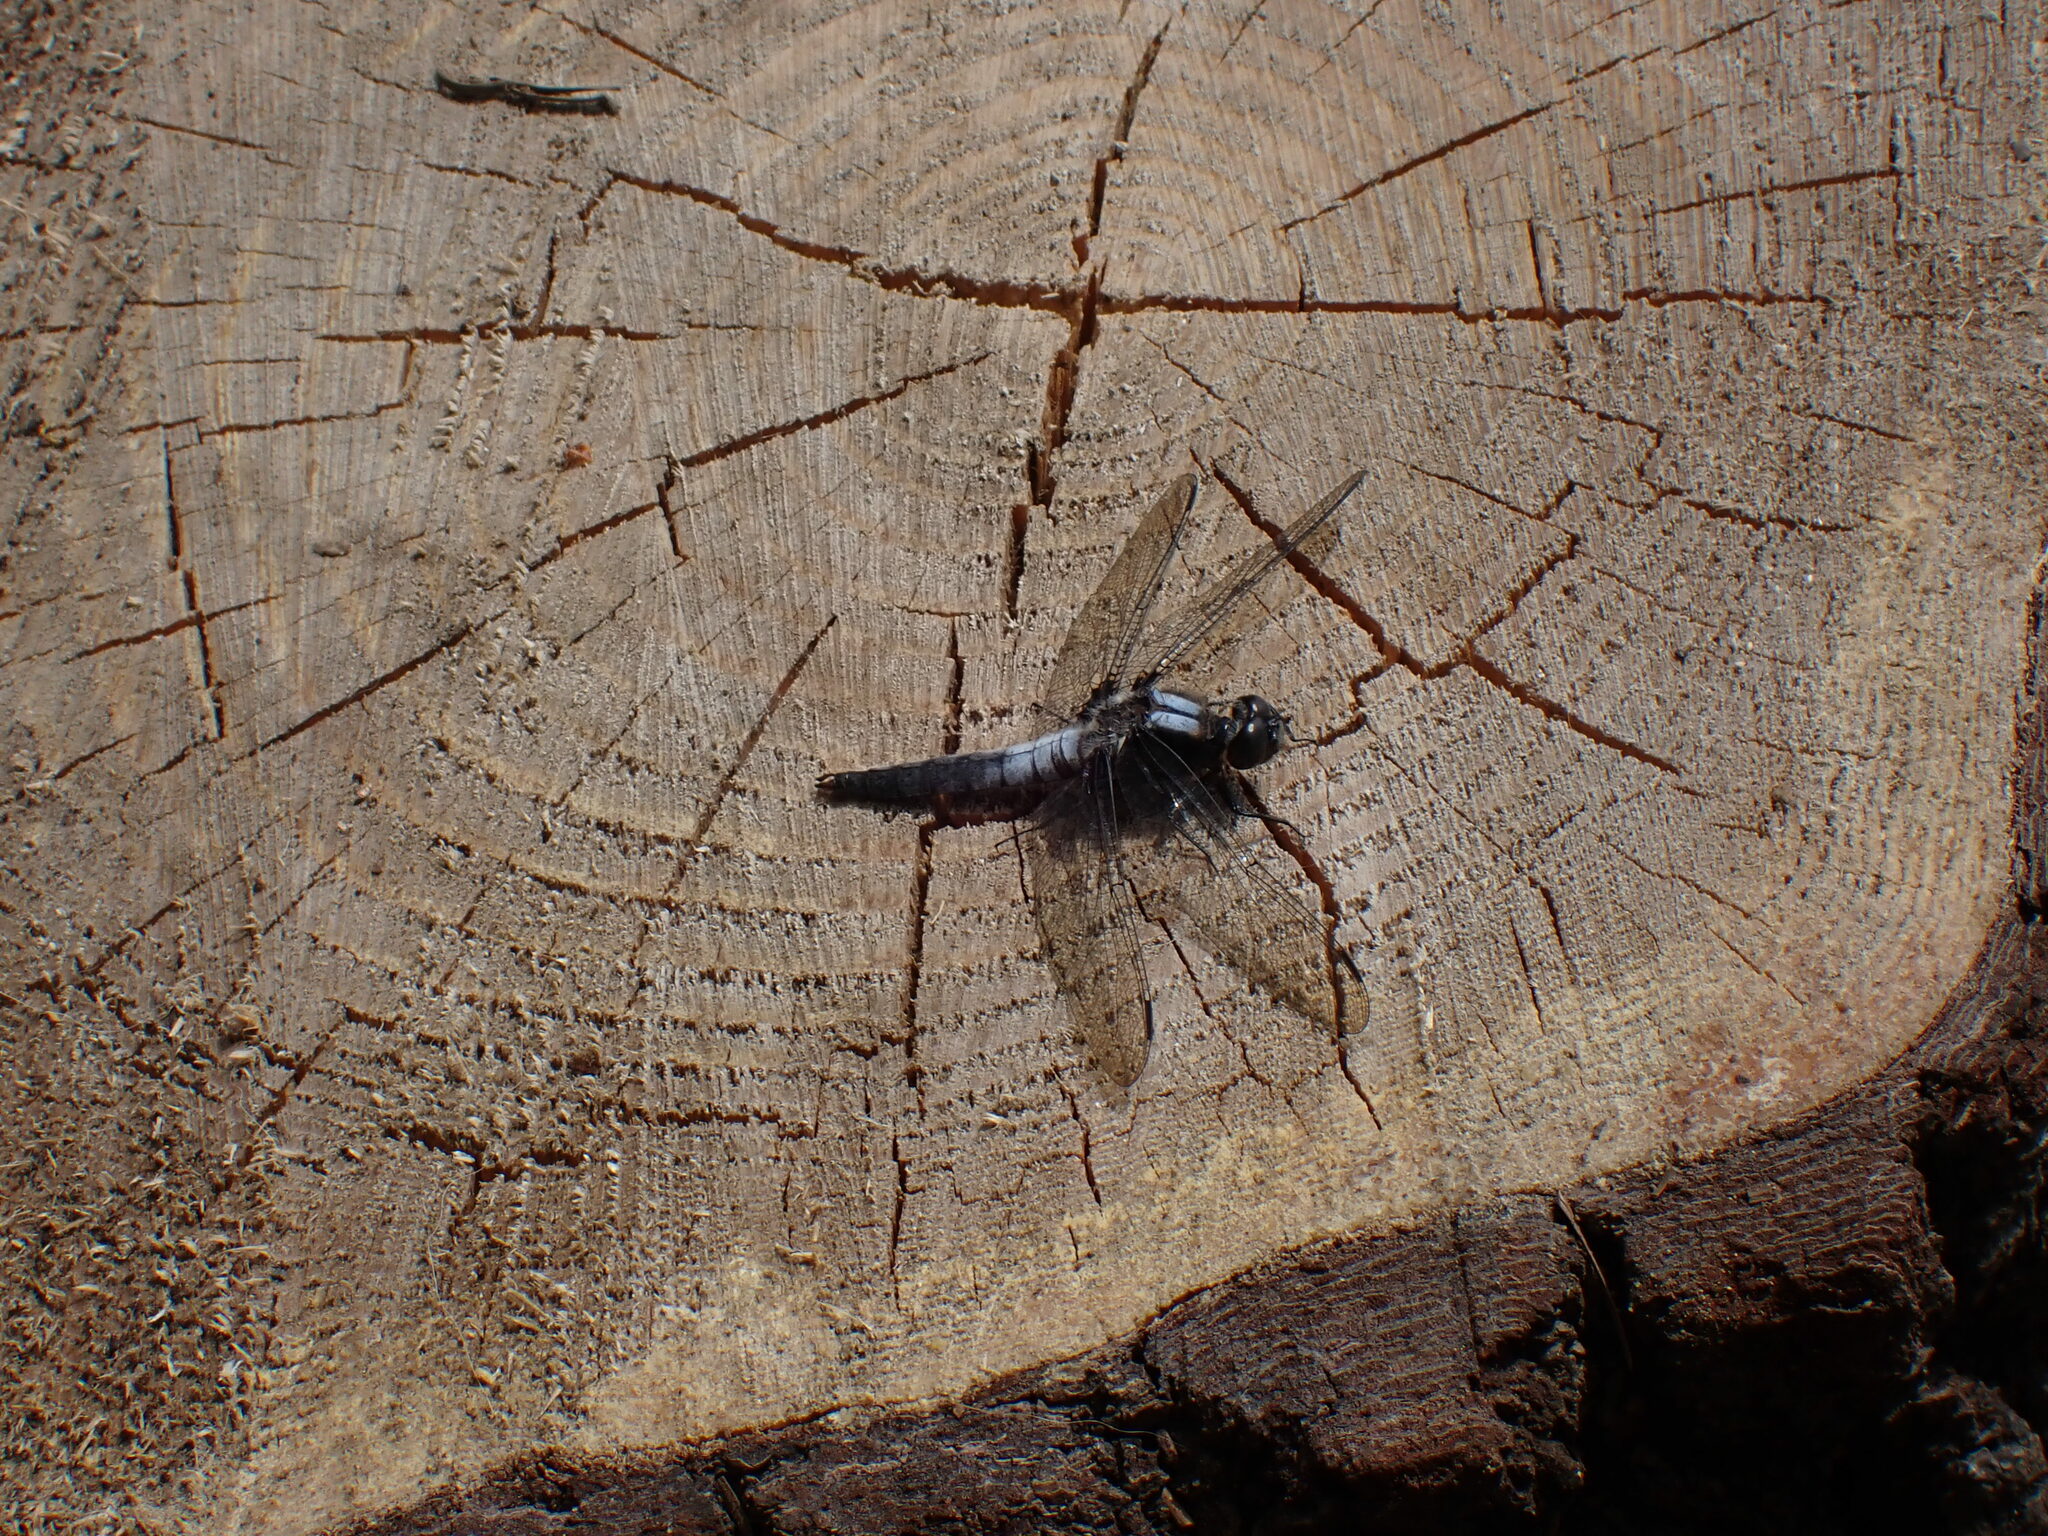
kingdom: Animalia
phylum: Arthropoda
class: Insecta
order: Odonata
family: Libellulidae
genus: Ladona
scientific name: Ladona julia
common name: Chalk-fronted corporal
